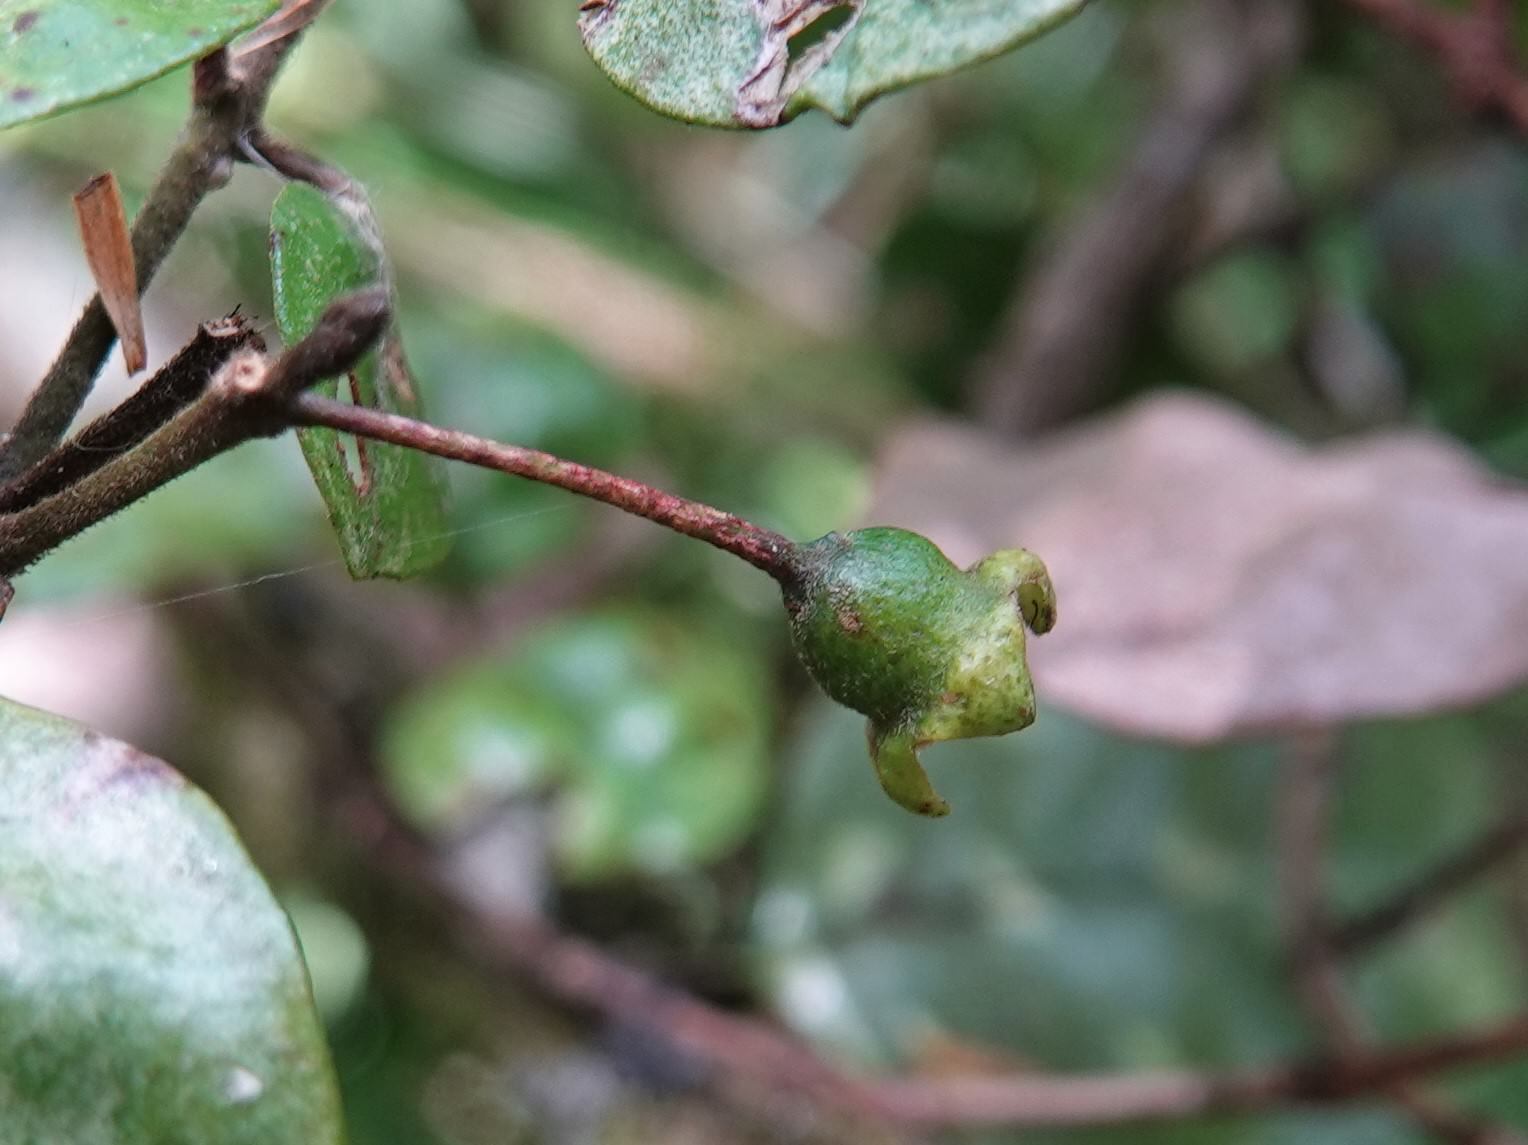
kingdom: Plantae
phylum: Tracheophyta
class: Magnoliopsida
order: Myrtales
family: Myrtaceae
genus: Lophomyrtus
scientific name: Lophomyrtus bullata
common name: Rama rama
